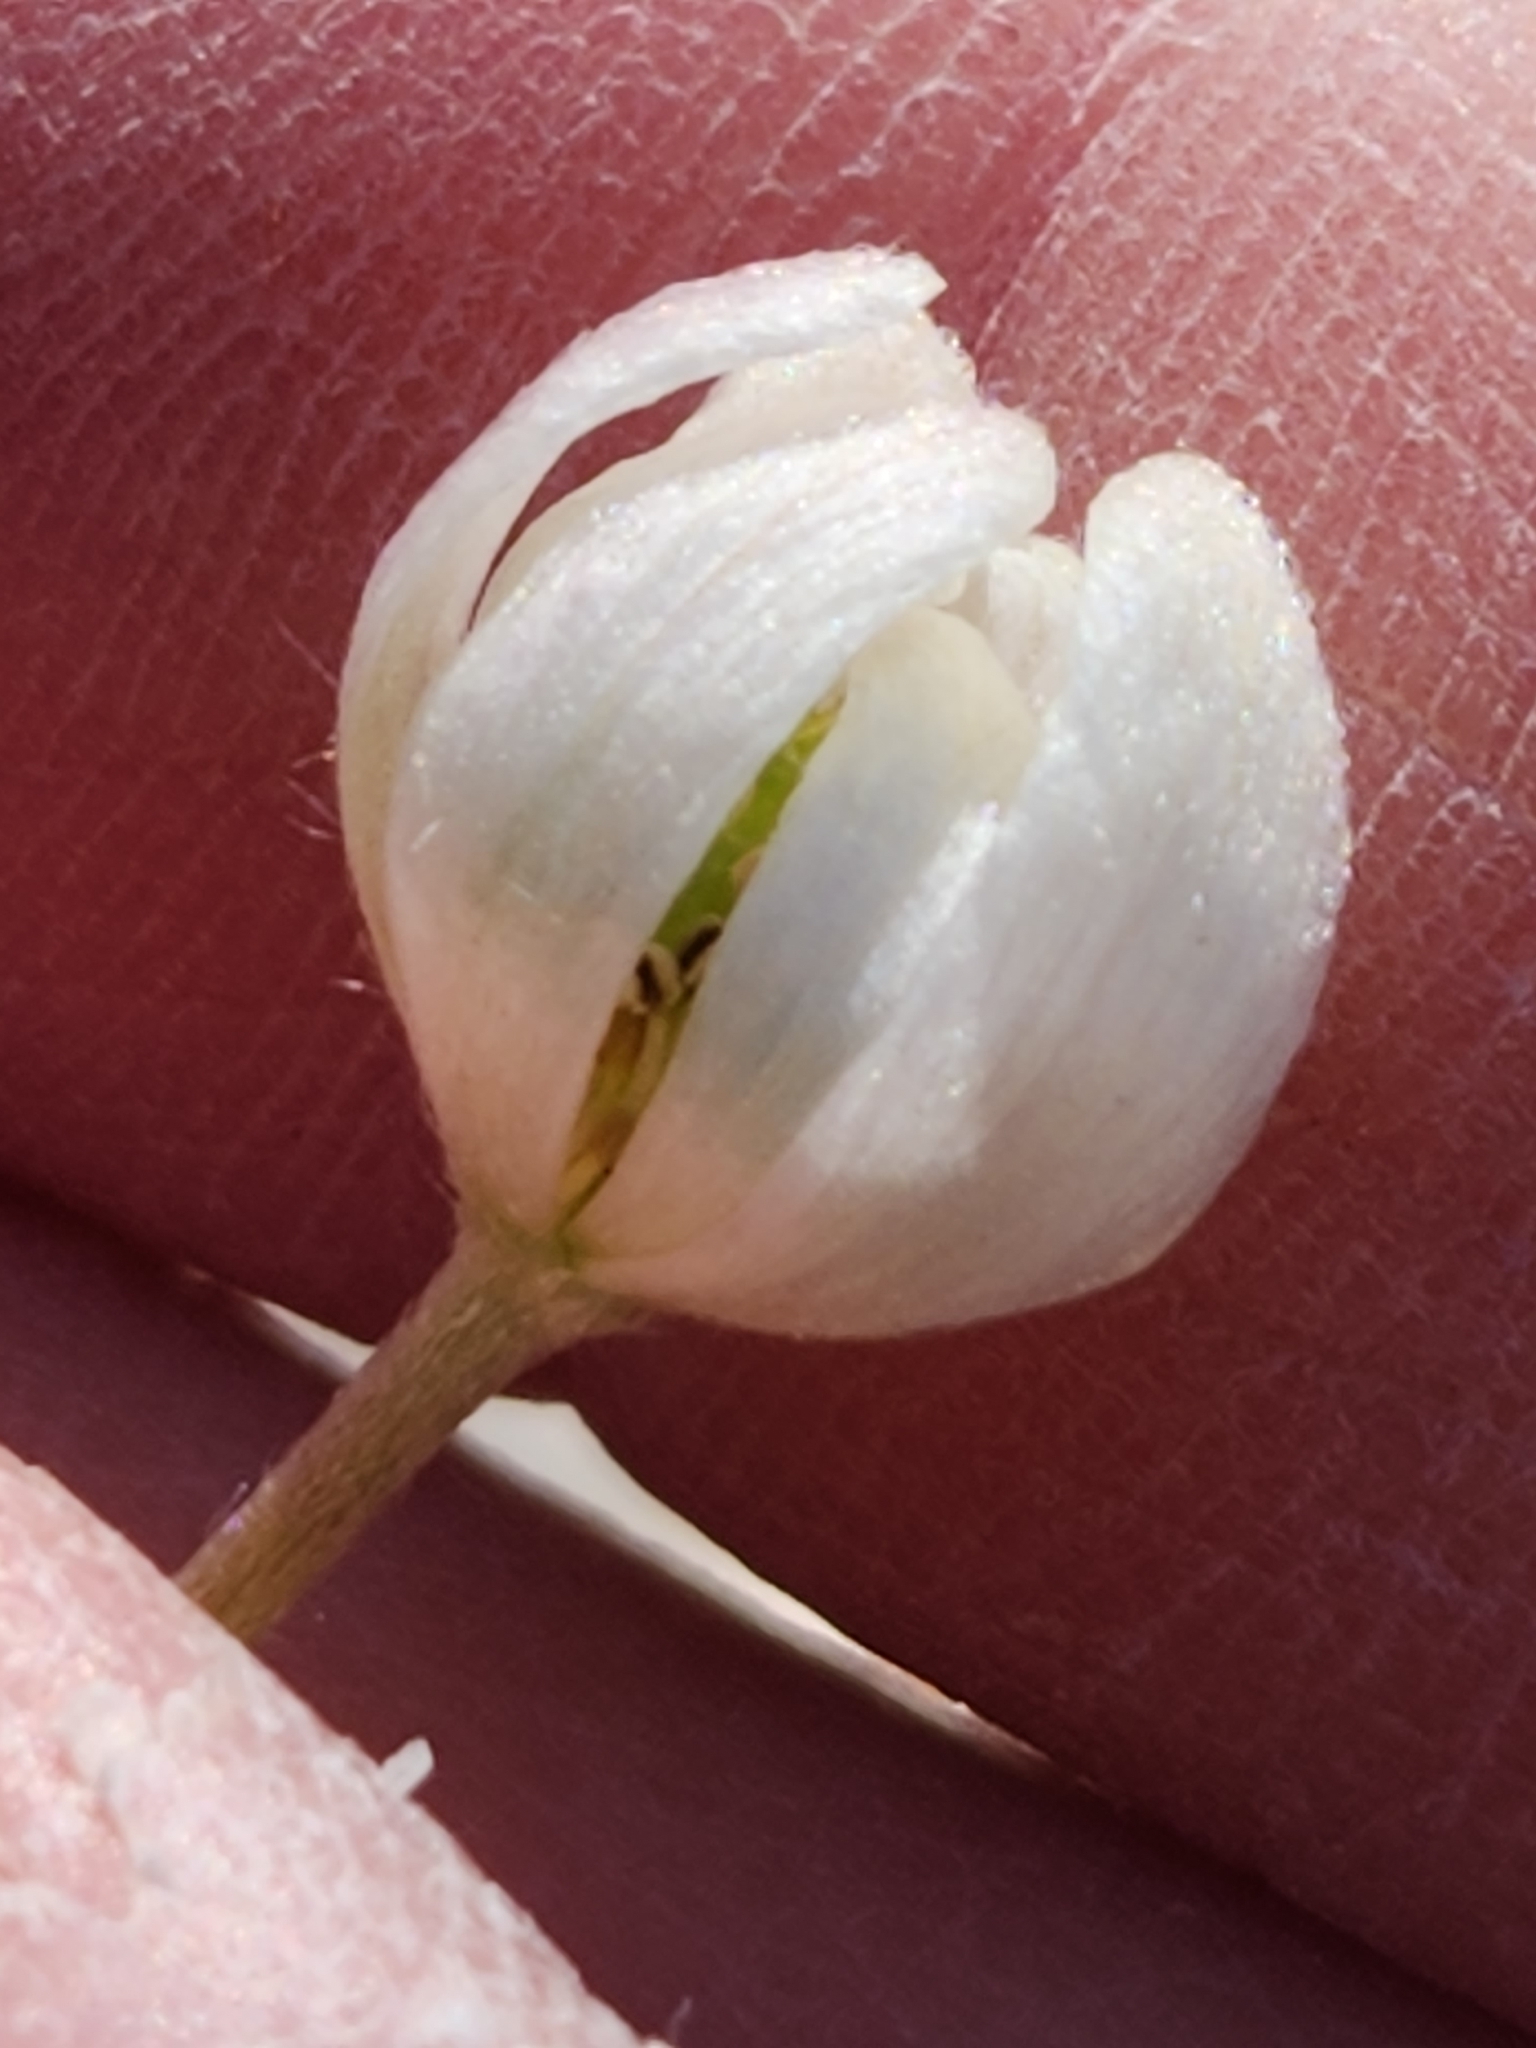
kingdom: Plantae
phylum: Tracheophyta
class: Magnoliopsida
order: Ranunculales
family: Ranunculaceae
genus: Anemone
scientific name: Anemone edwardsiana
